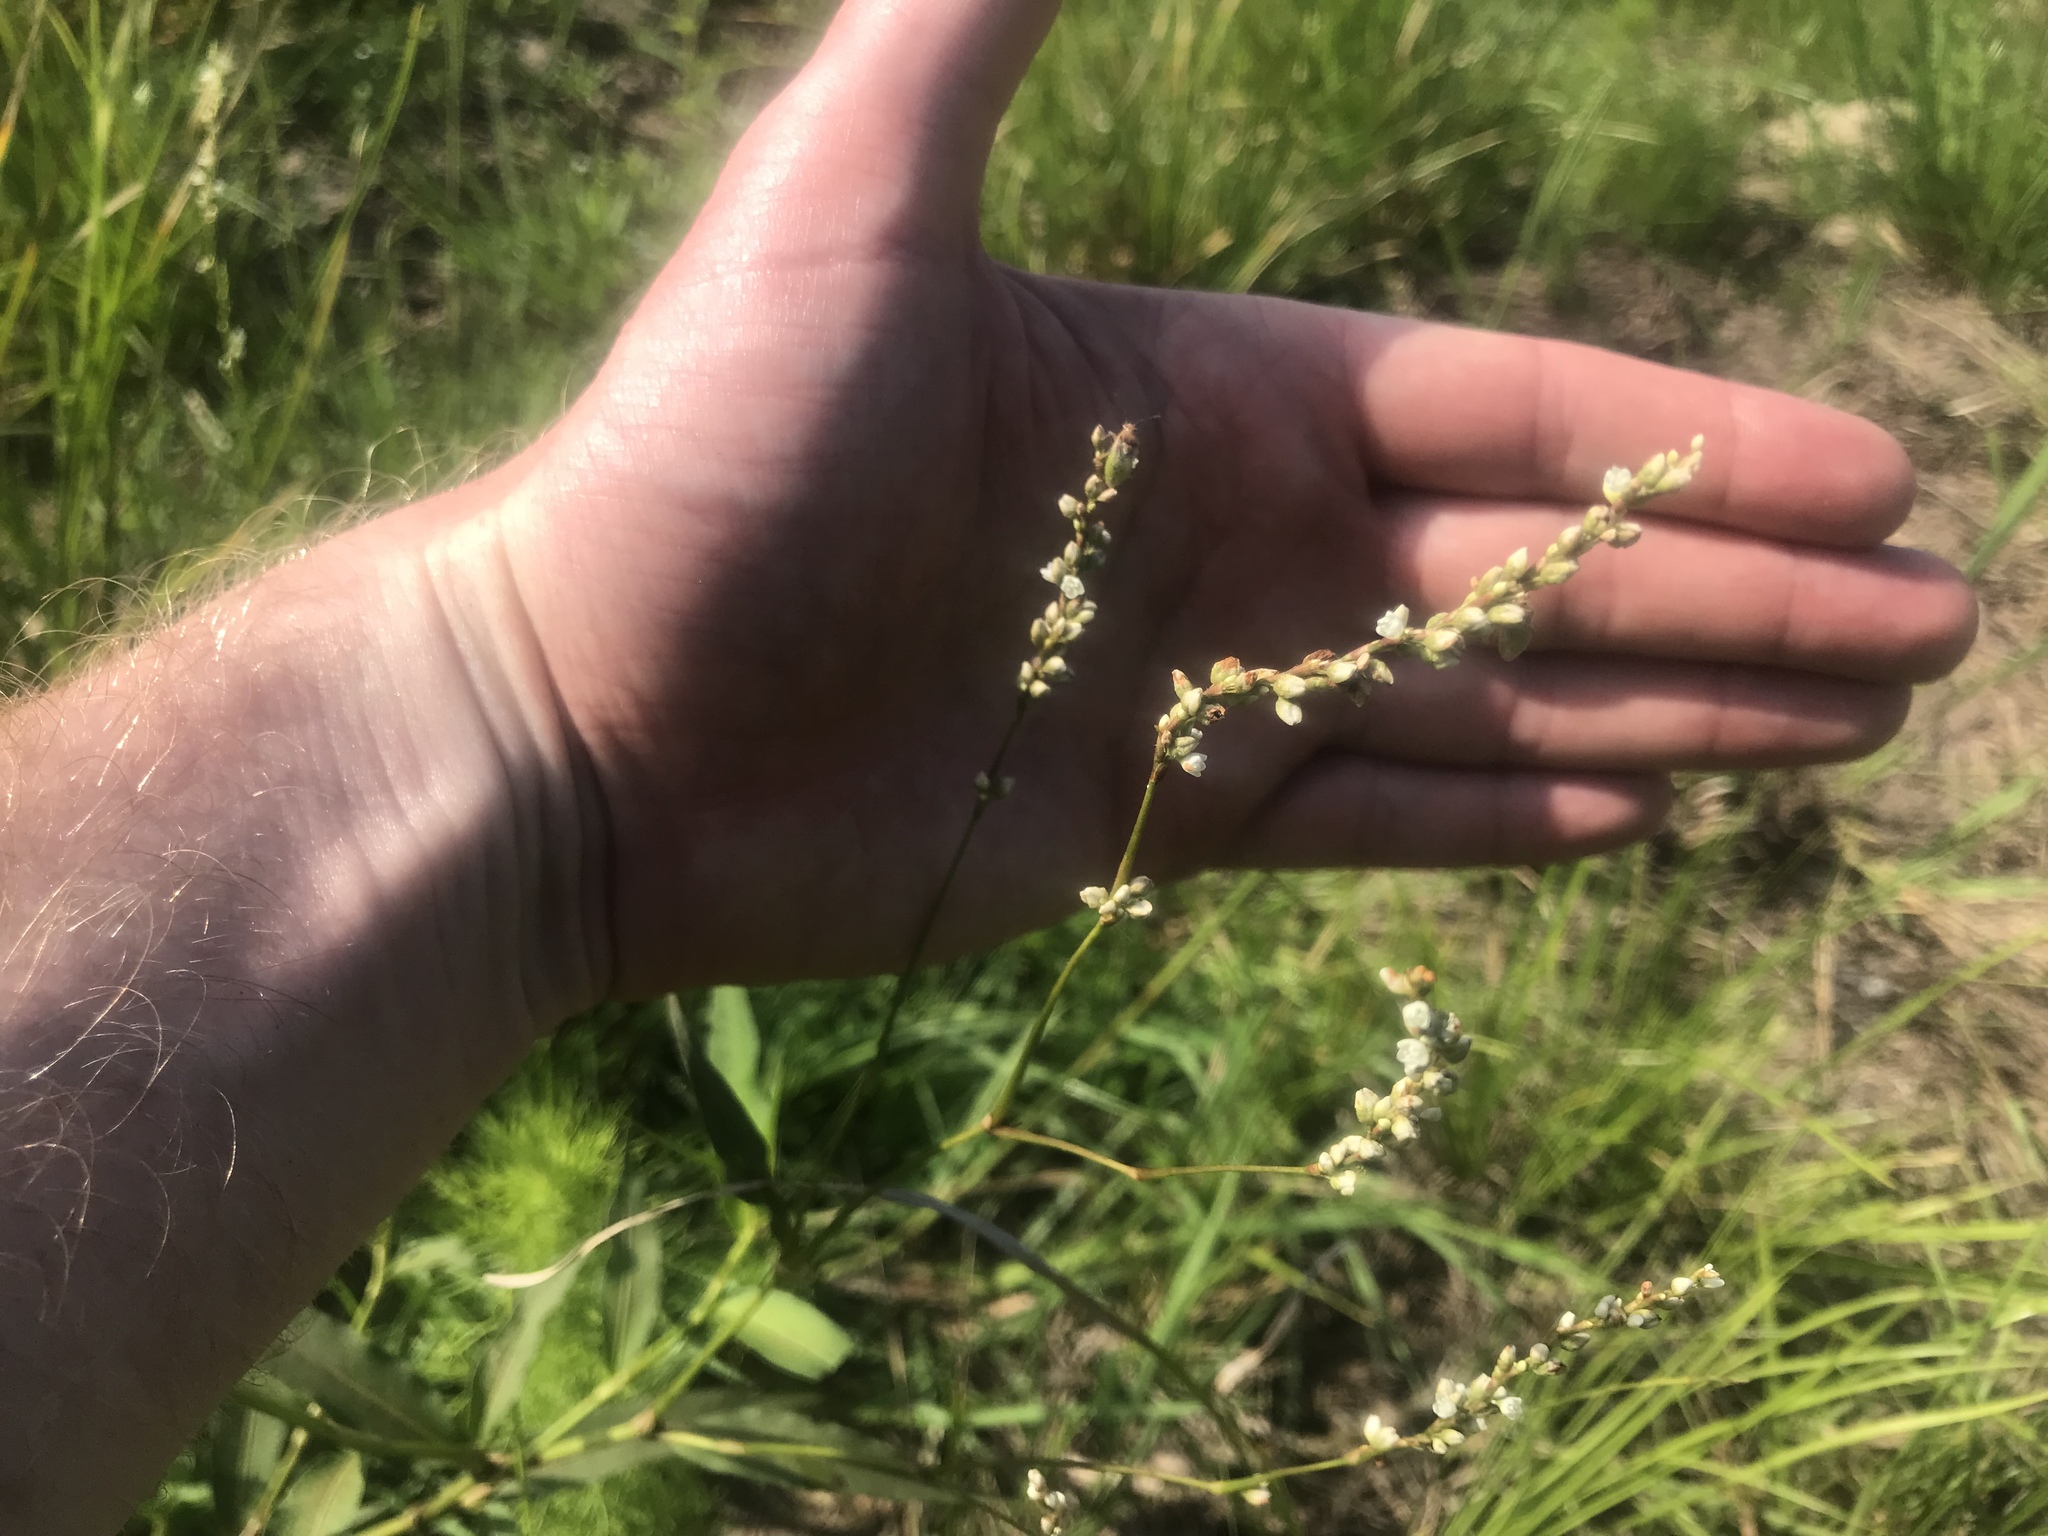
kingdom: Plantae
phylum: Tracheophyta
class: Magnoliopsida
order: Caryophyllales
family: Polygonaceae
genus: Persicaria
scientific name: Persicaria hydropiperoides
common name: Swamp smartweed
